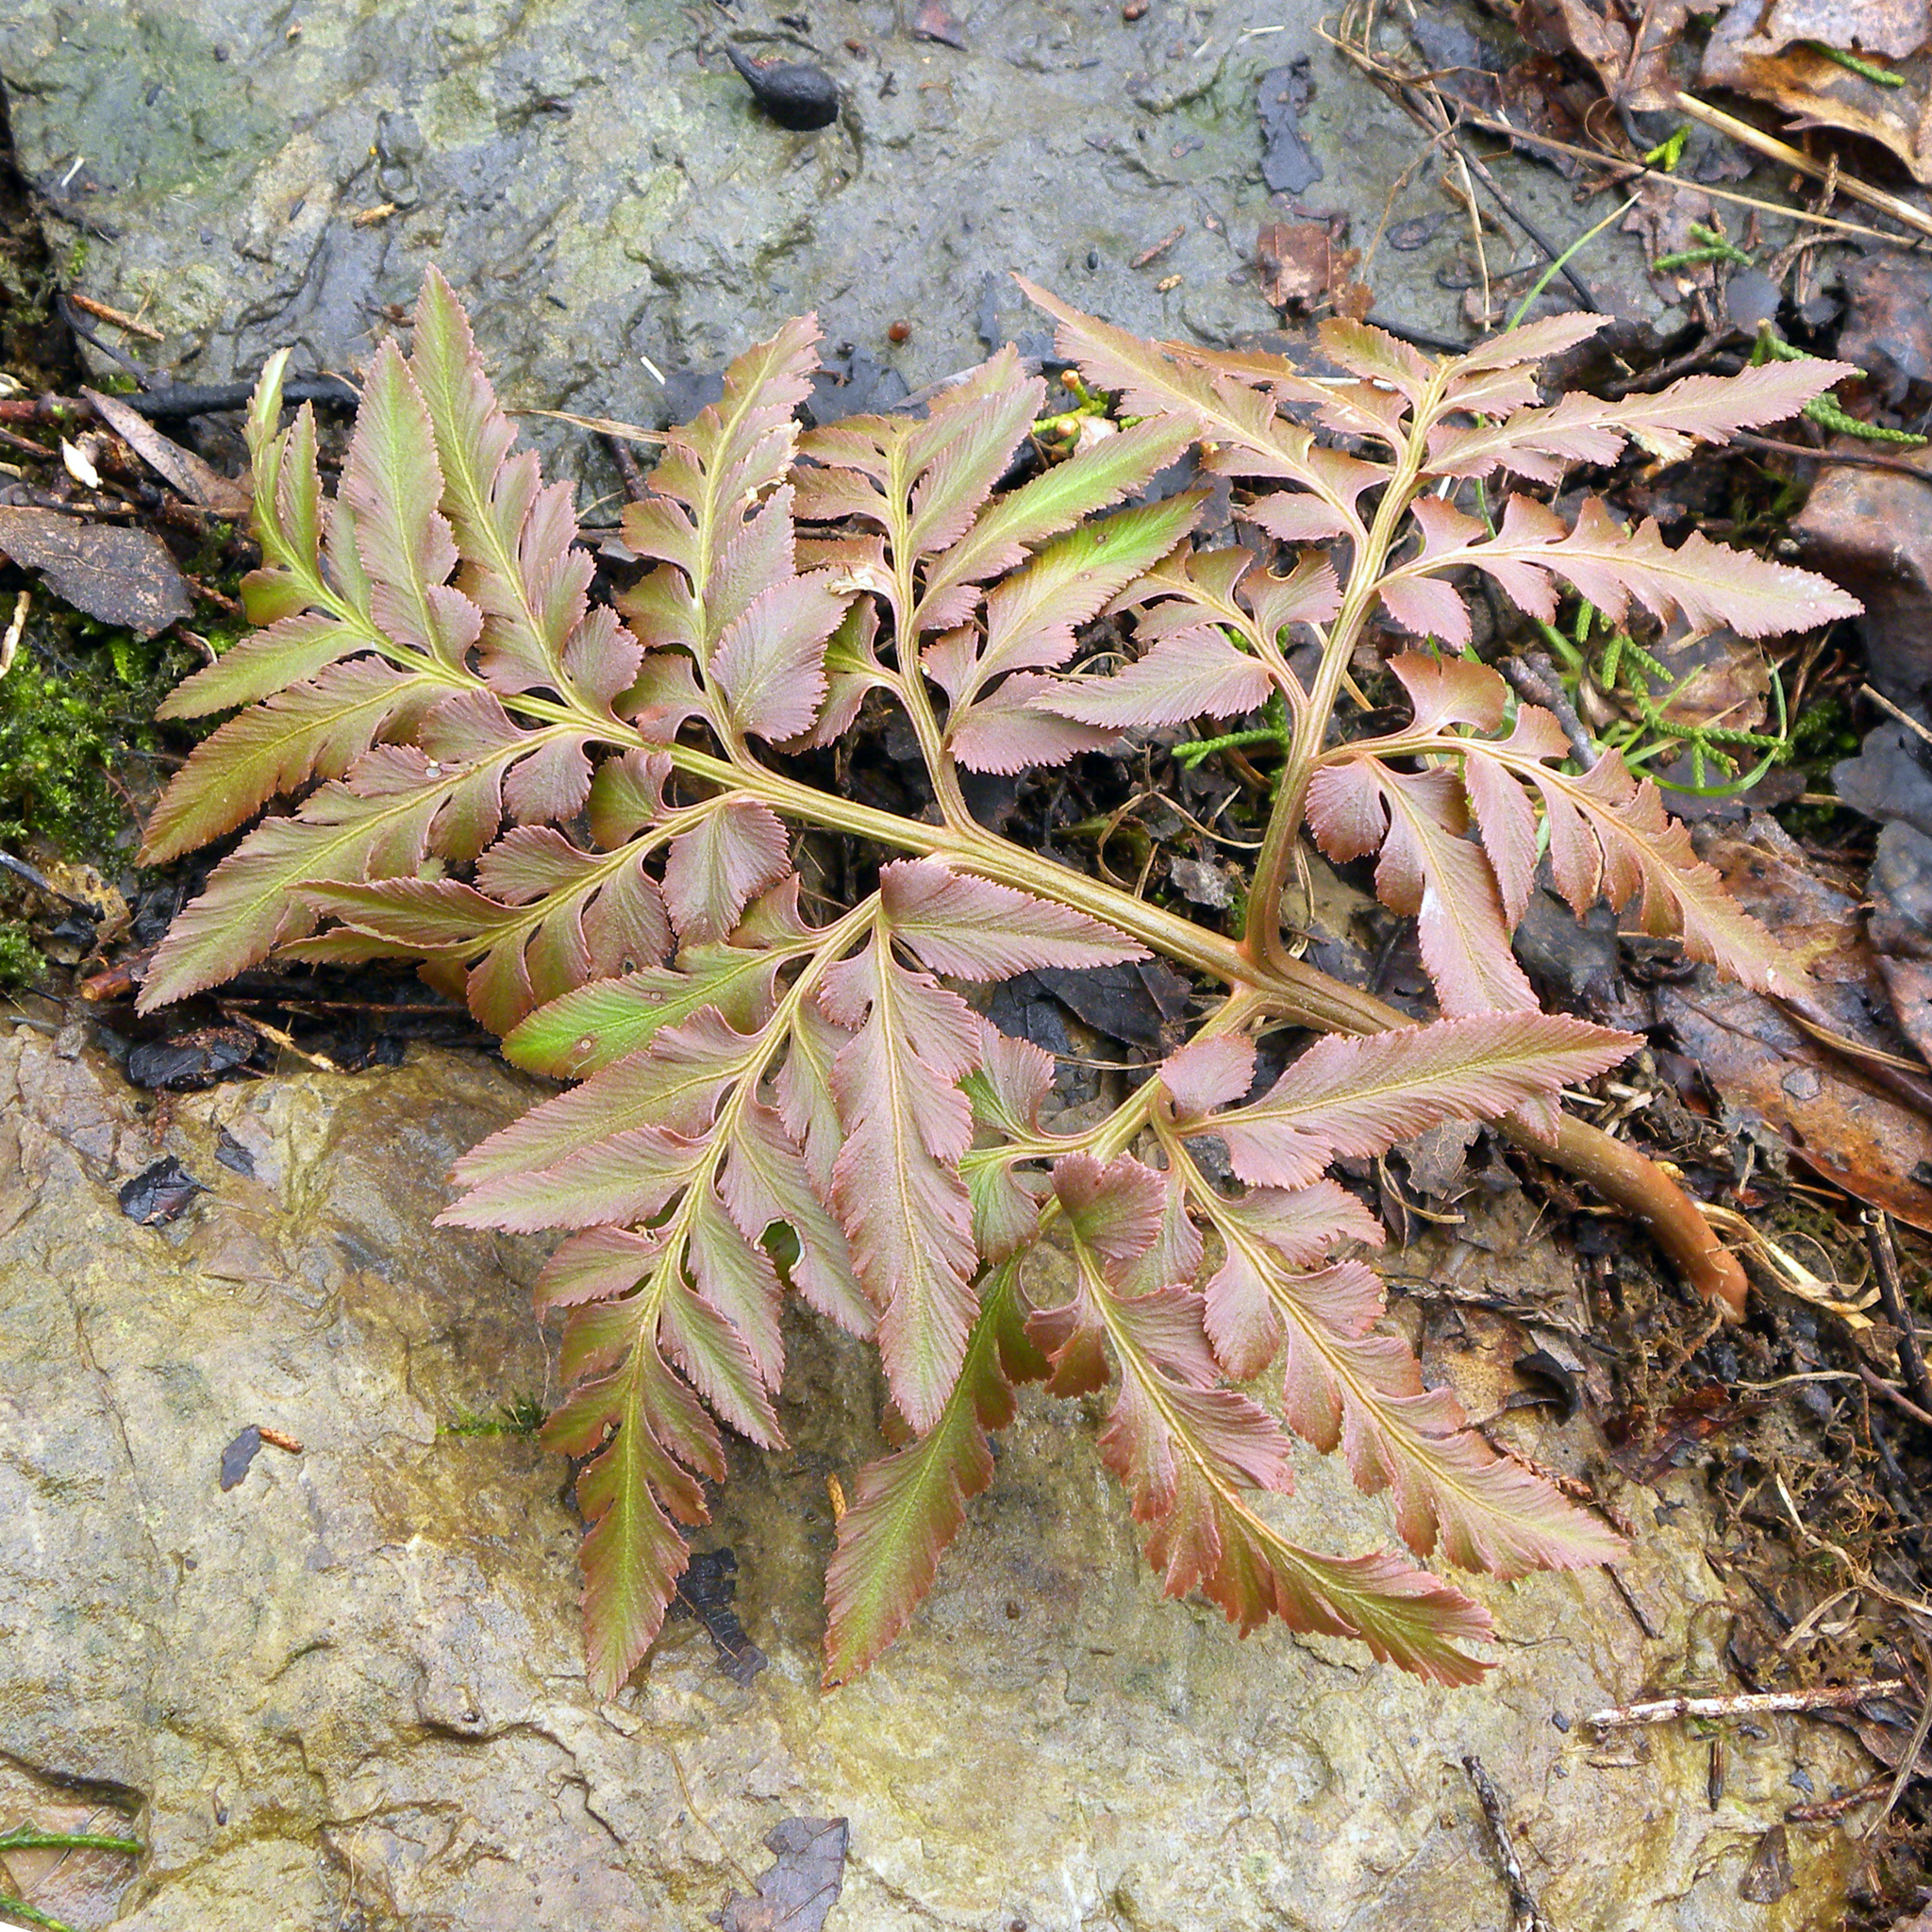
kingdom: Plantae
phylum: Tracheophyta
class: Polypodiopsida
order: Ophioglossales
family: Ophioglossaceae
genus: Sceptridium
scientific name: Sceptridium dissectum
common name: Cut-leaved grapefern
